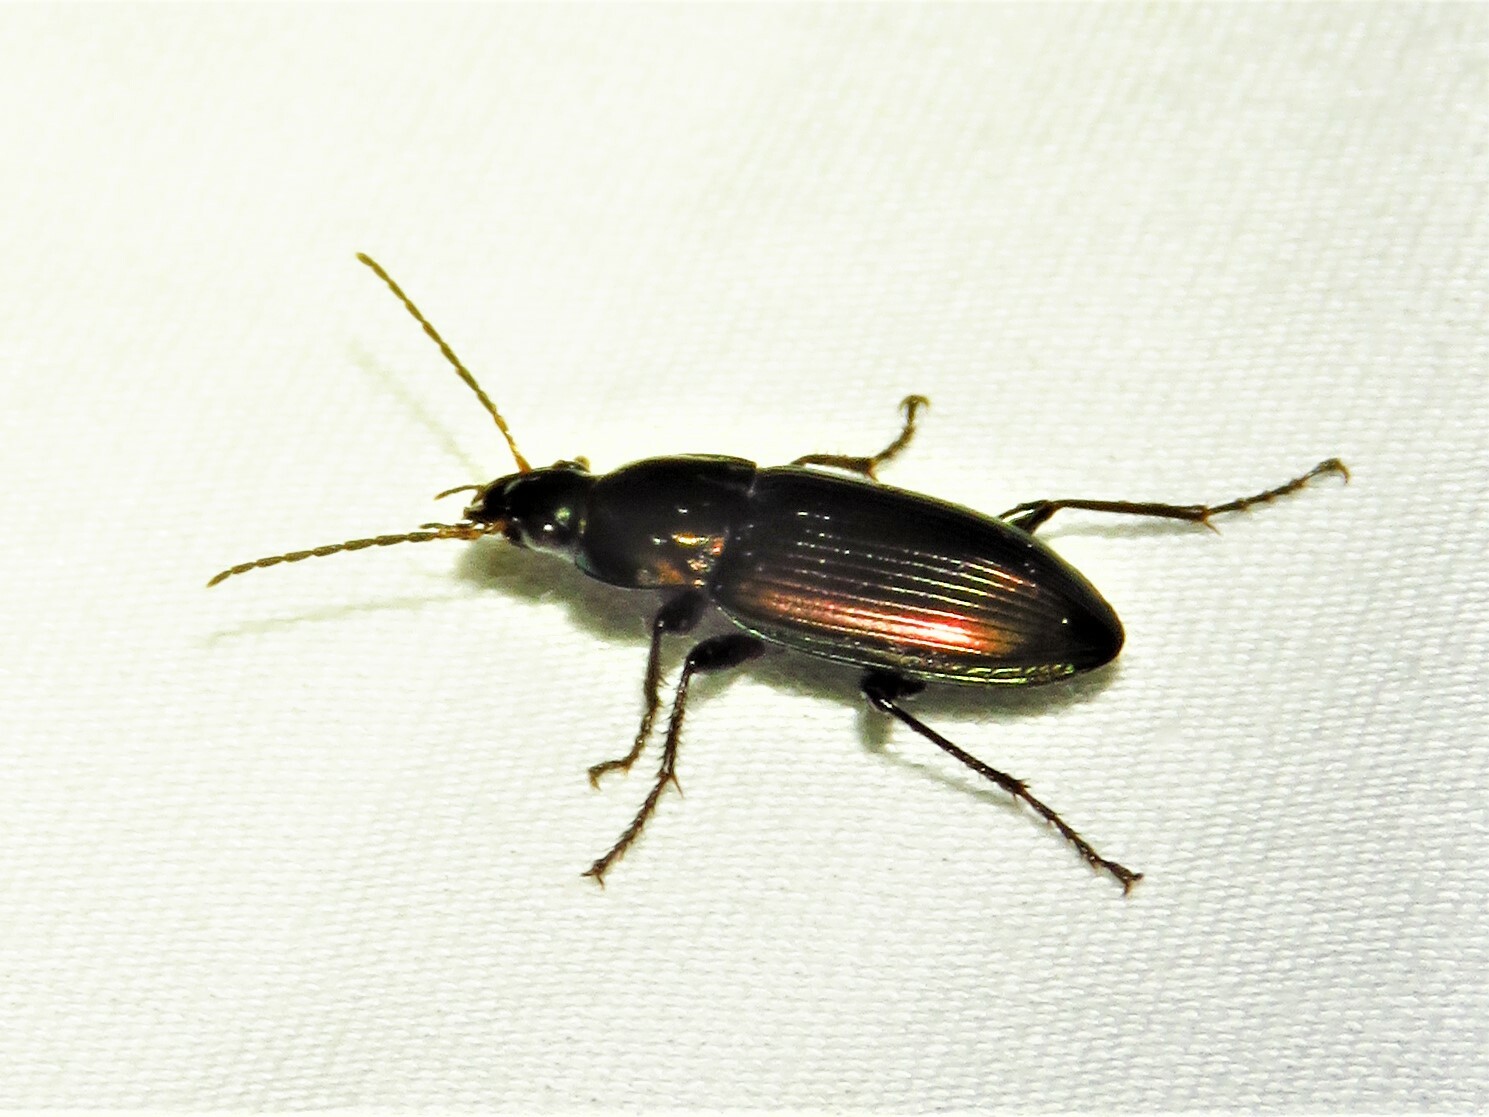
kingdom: Animalia
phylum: Arthropoda
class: Insecta
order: Coleoptera
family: Carabidae
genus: Poecilus
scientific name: Poecilus chalcites
